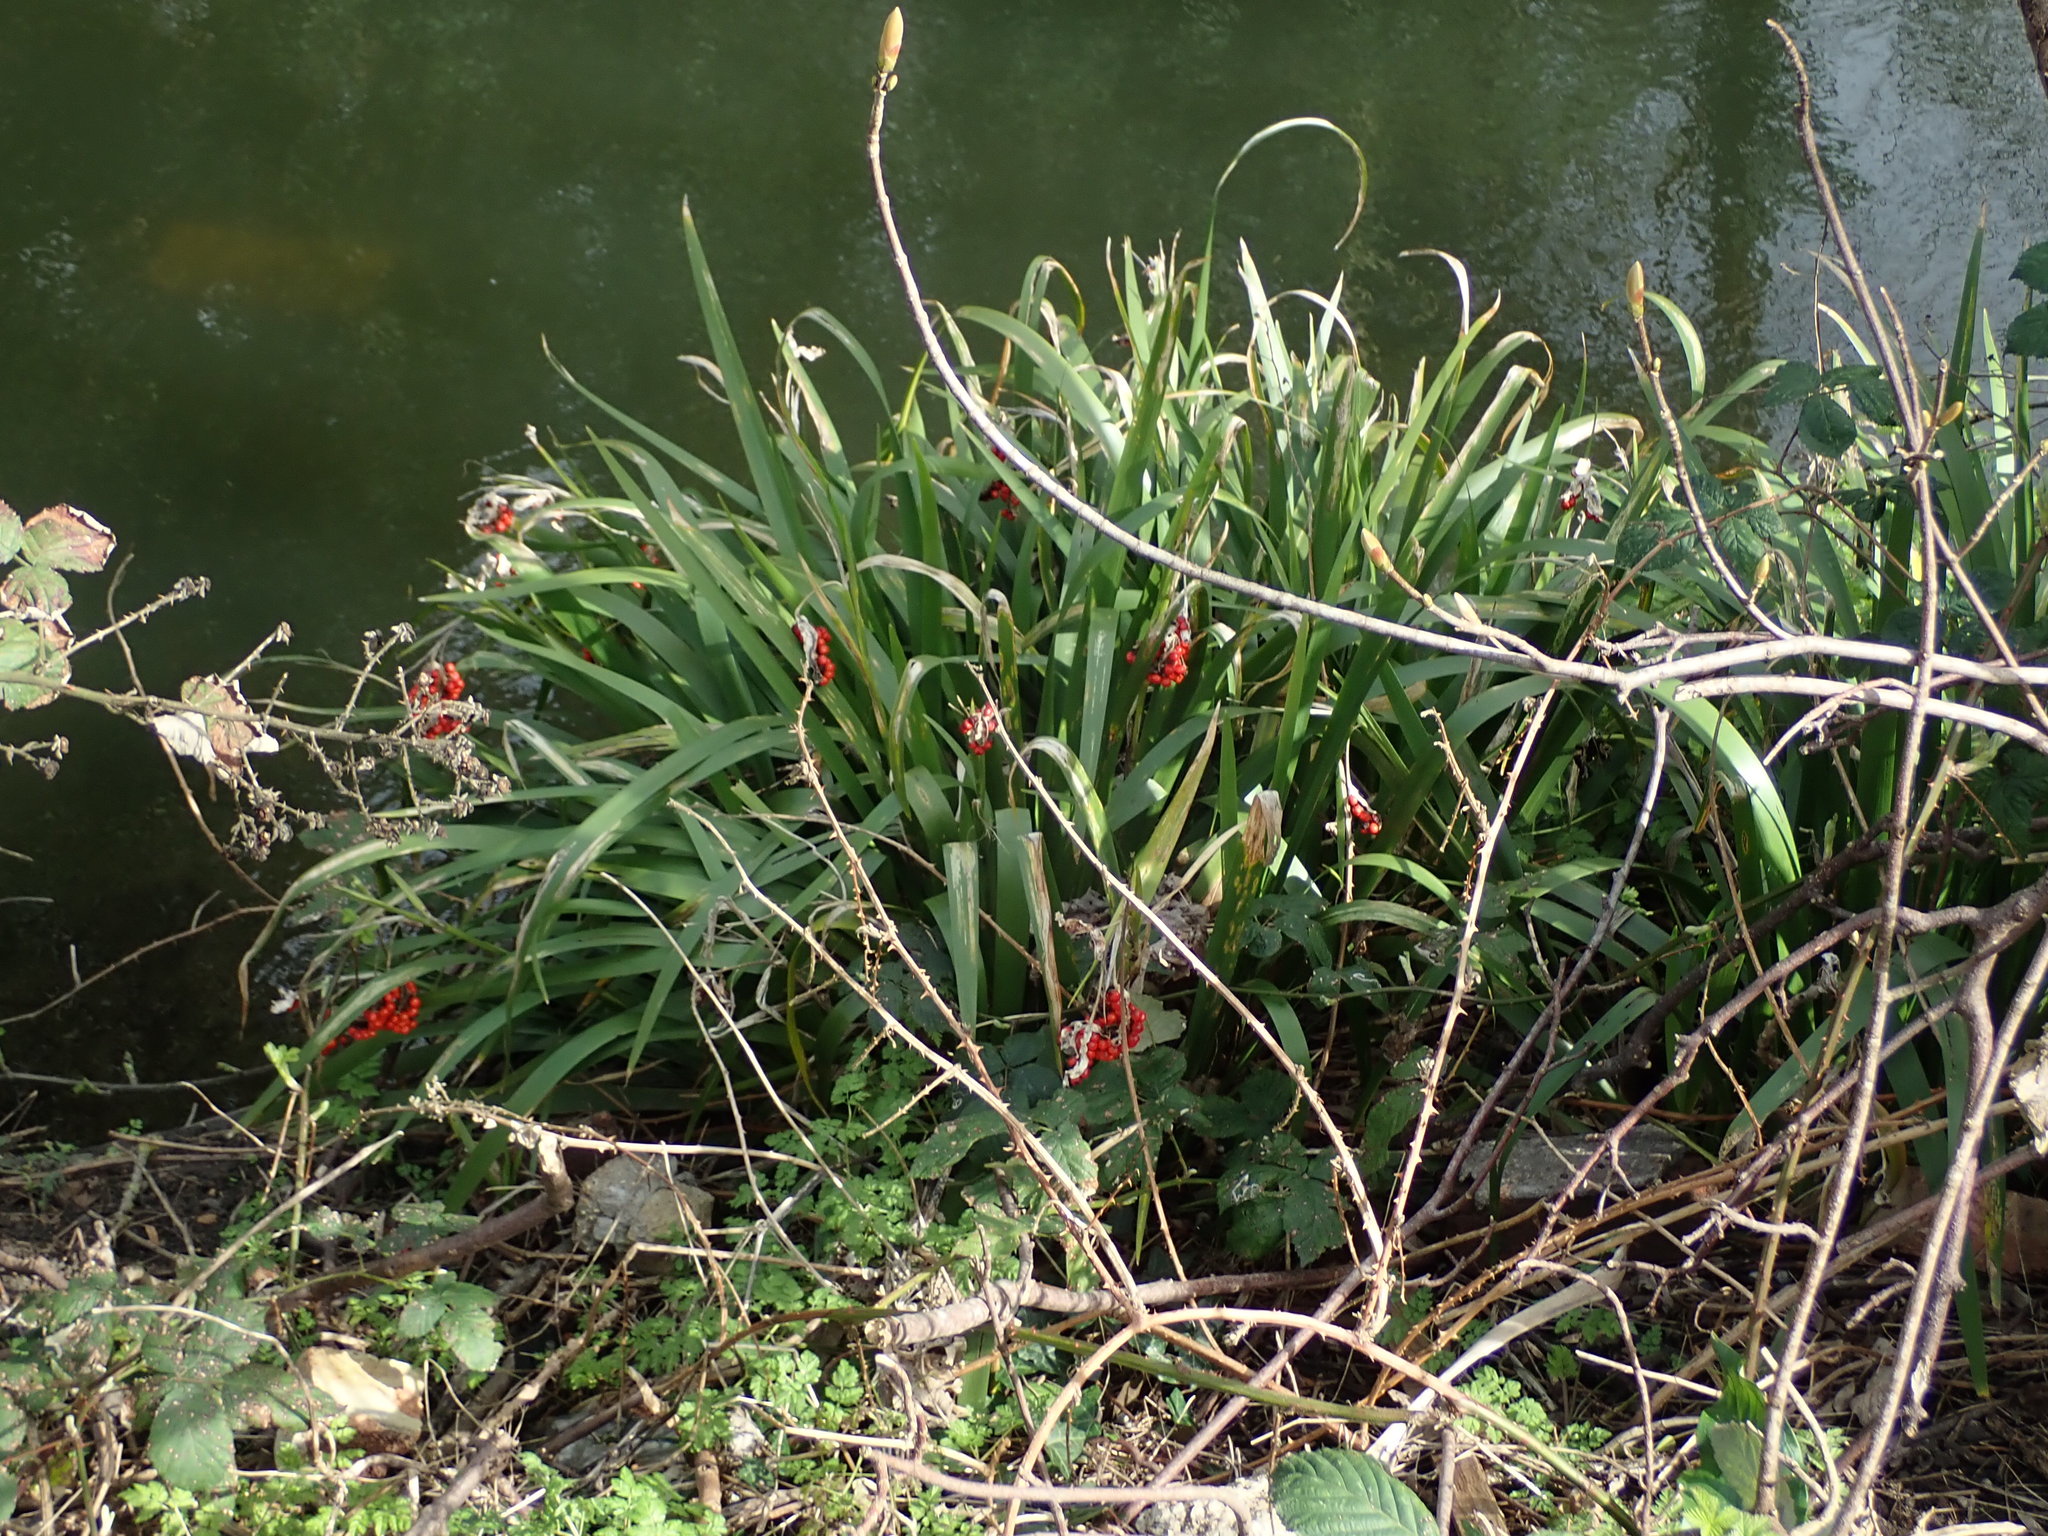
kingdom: Plantae
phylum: Tracheophyta
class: Liliopsida
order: Asparagales
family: Iridaceae
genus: Iris
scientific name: Iris foetidissima
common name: Stinking iris
